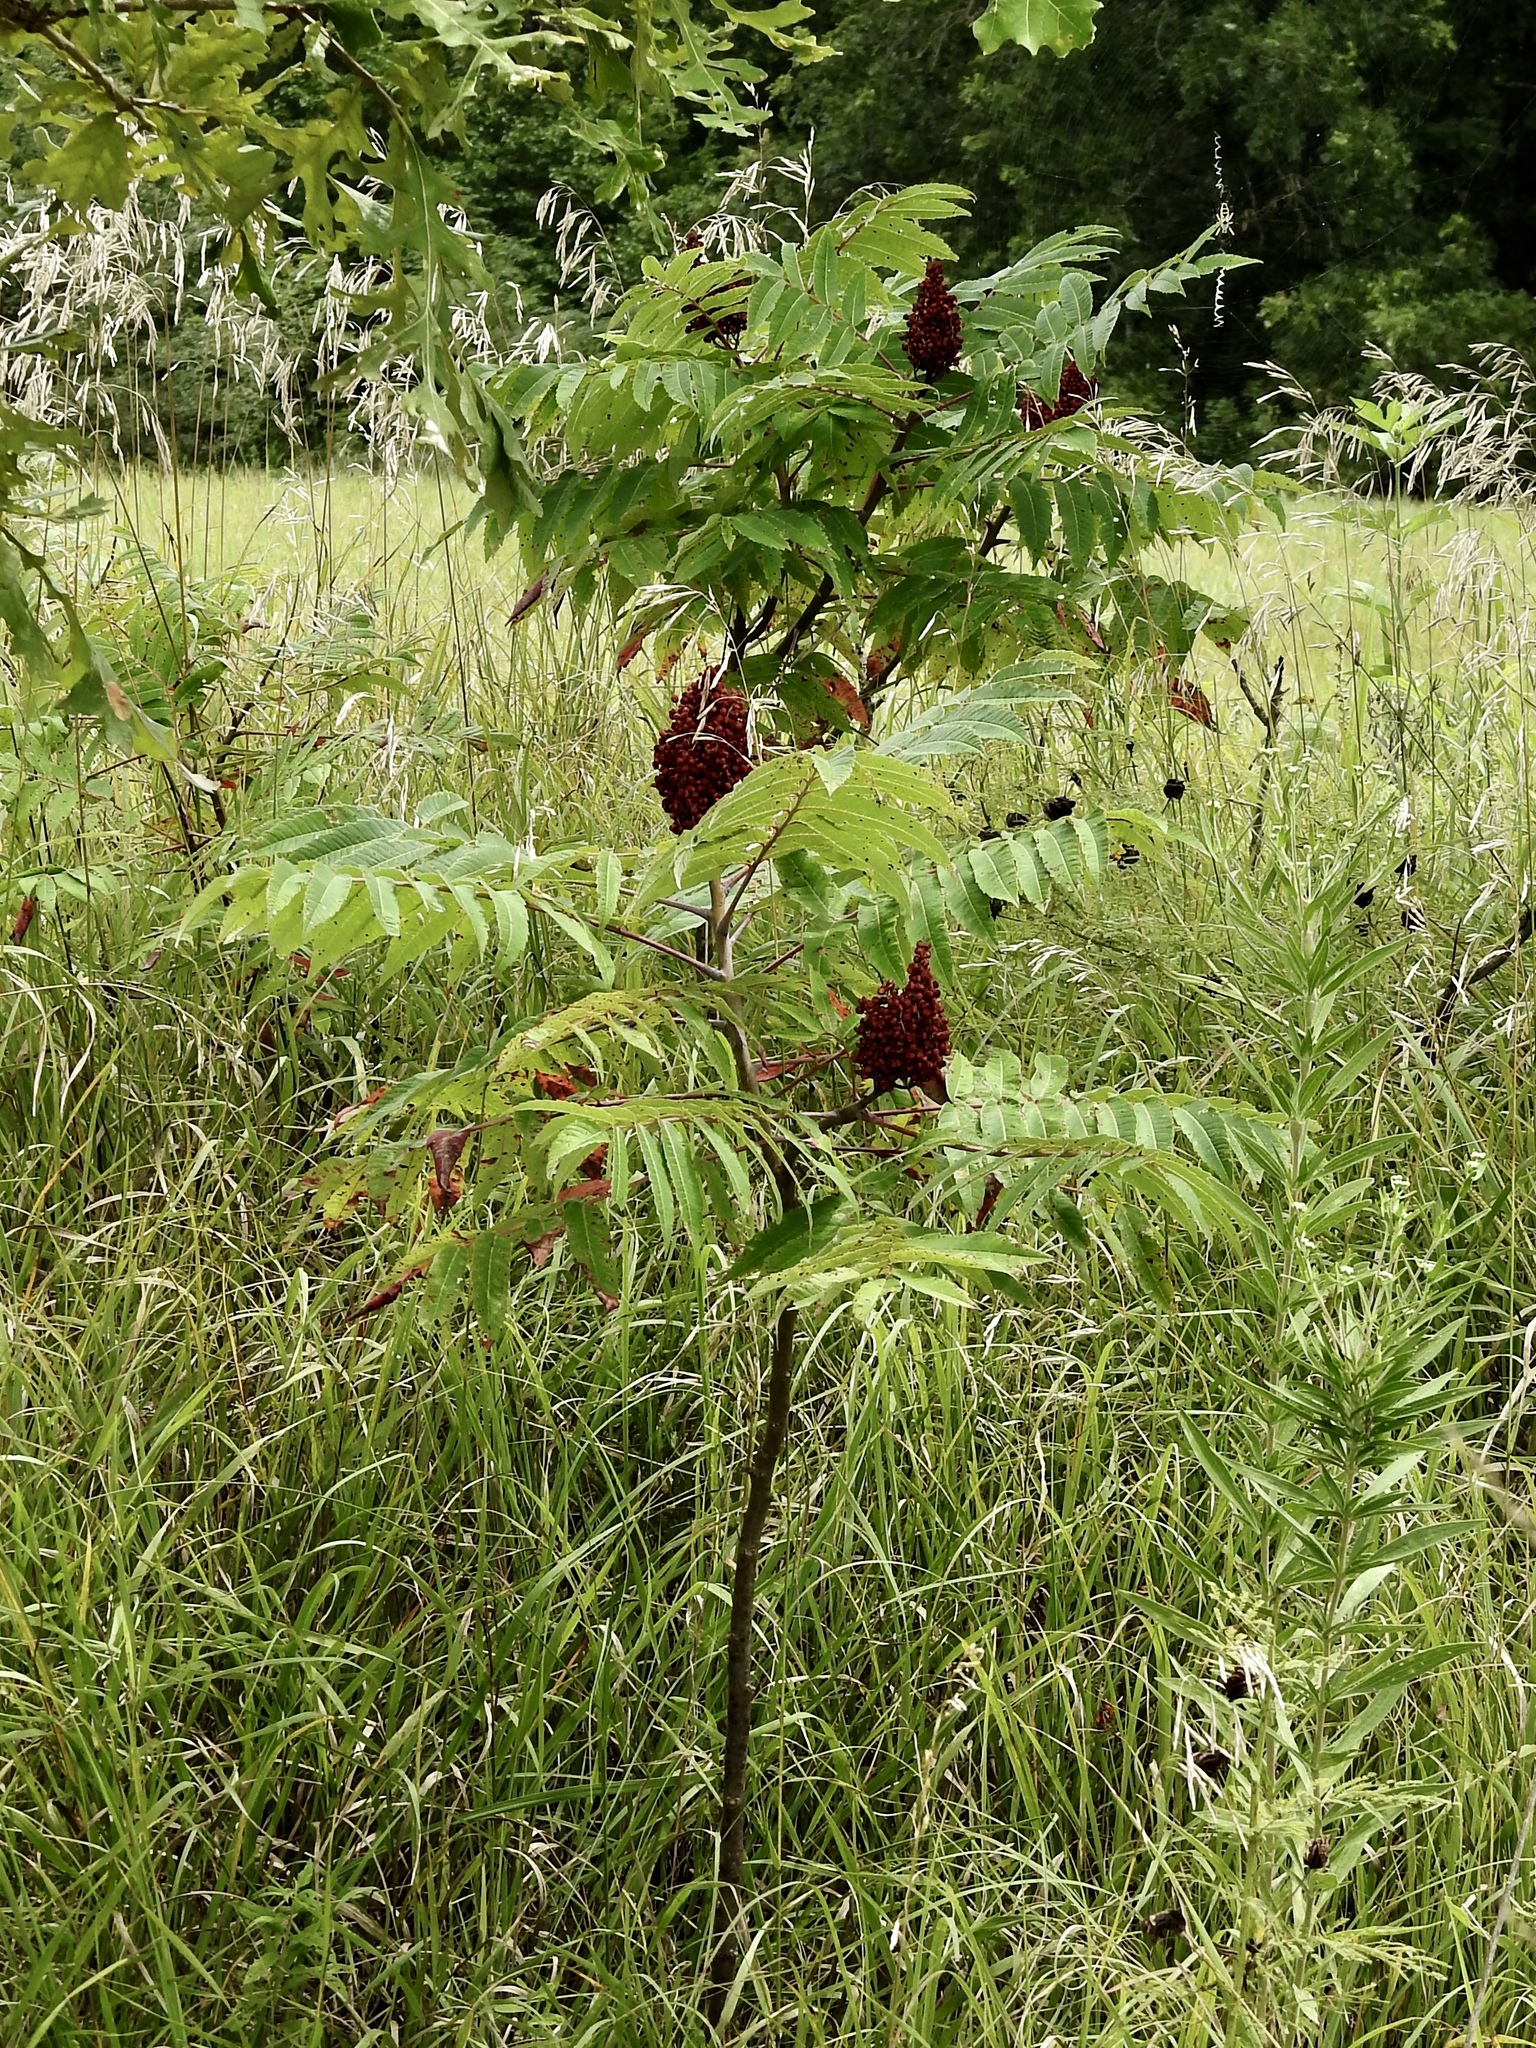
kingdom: Plantae
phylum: Tracheophyta
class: Magnoliopsida
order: Sapindales
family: Anacardiaceae
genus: Rhus
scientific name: Rhus glabra
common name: Scarlet sumac
